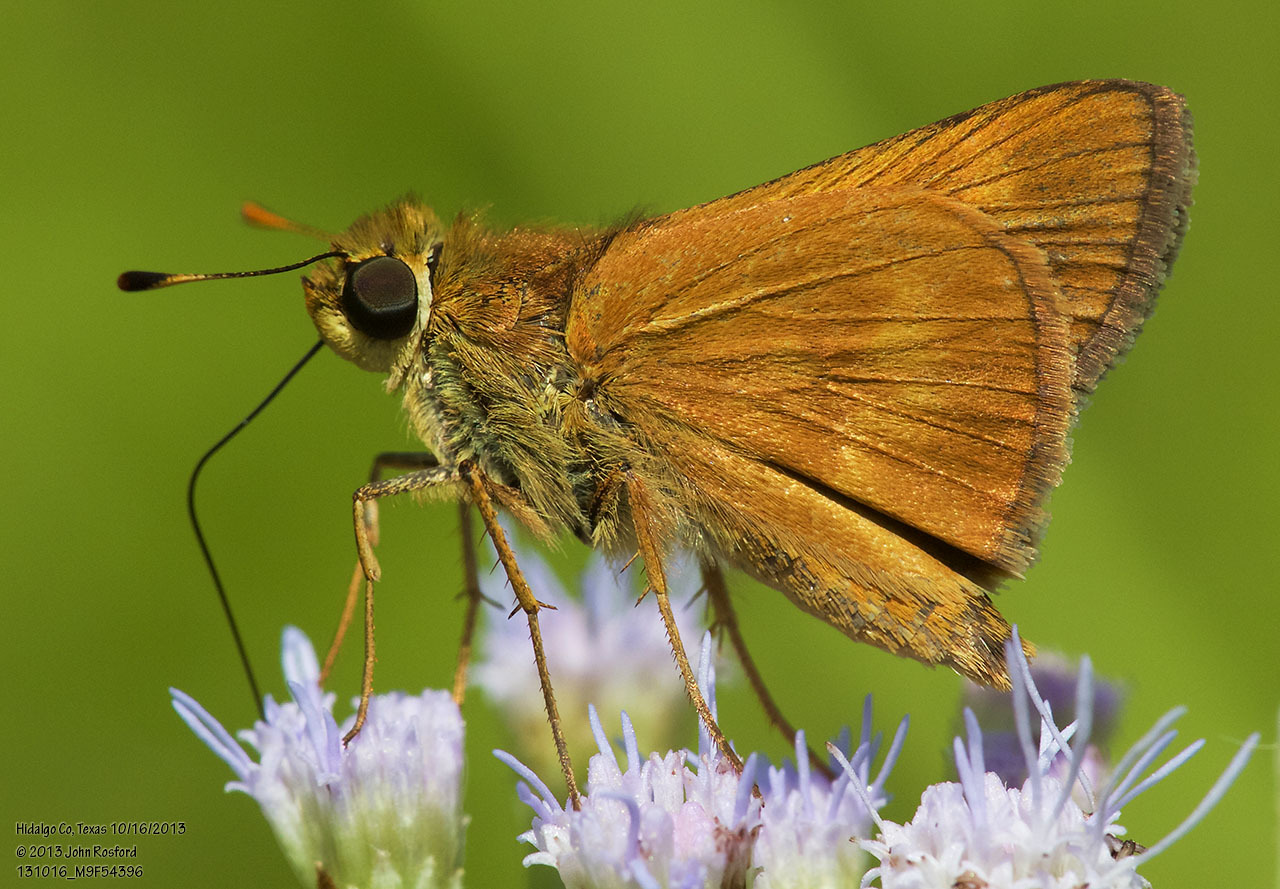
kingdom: Animalia
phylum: Arthropoda
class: Insecta
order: Lepidoptera
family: Hesperiidae
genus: Polites
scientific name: Polites otho
